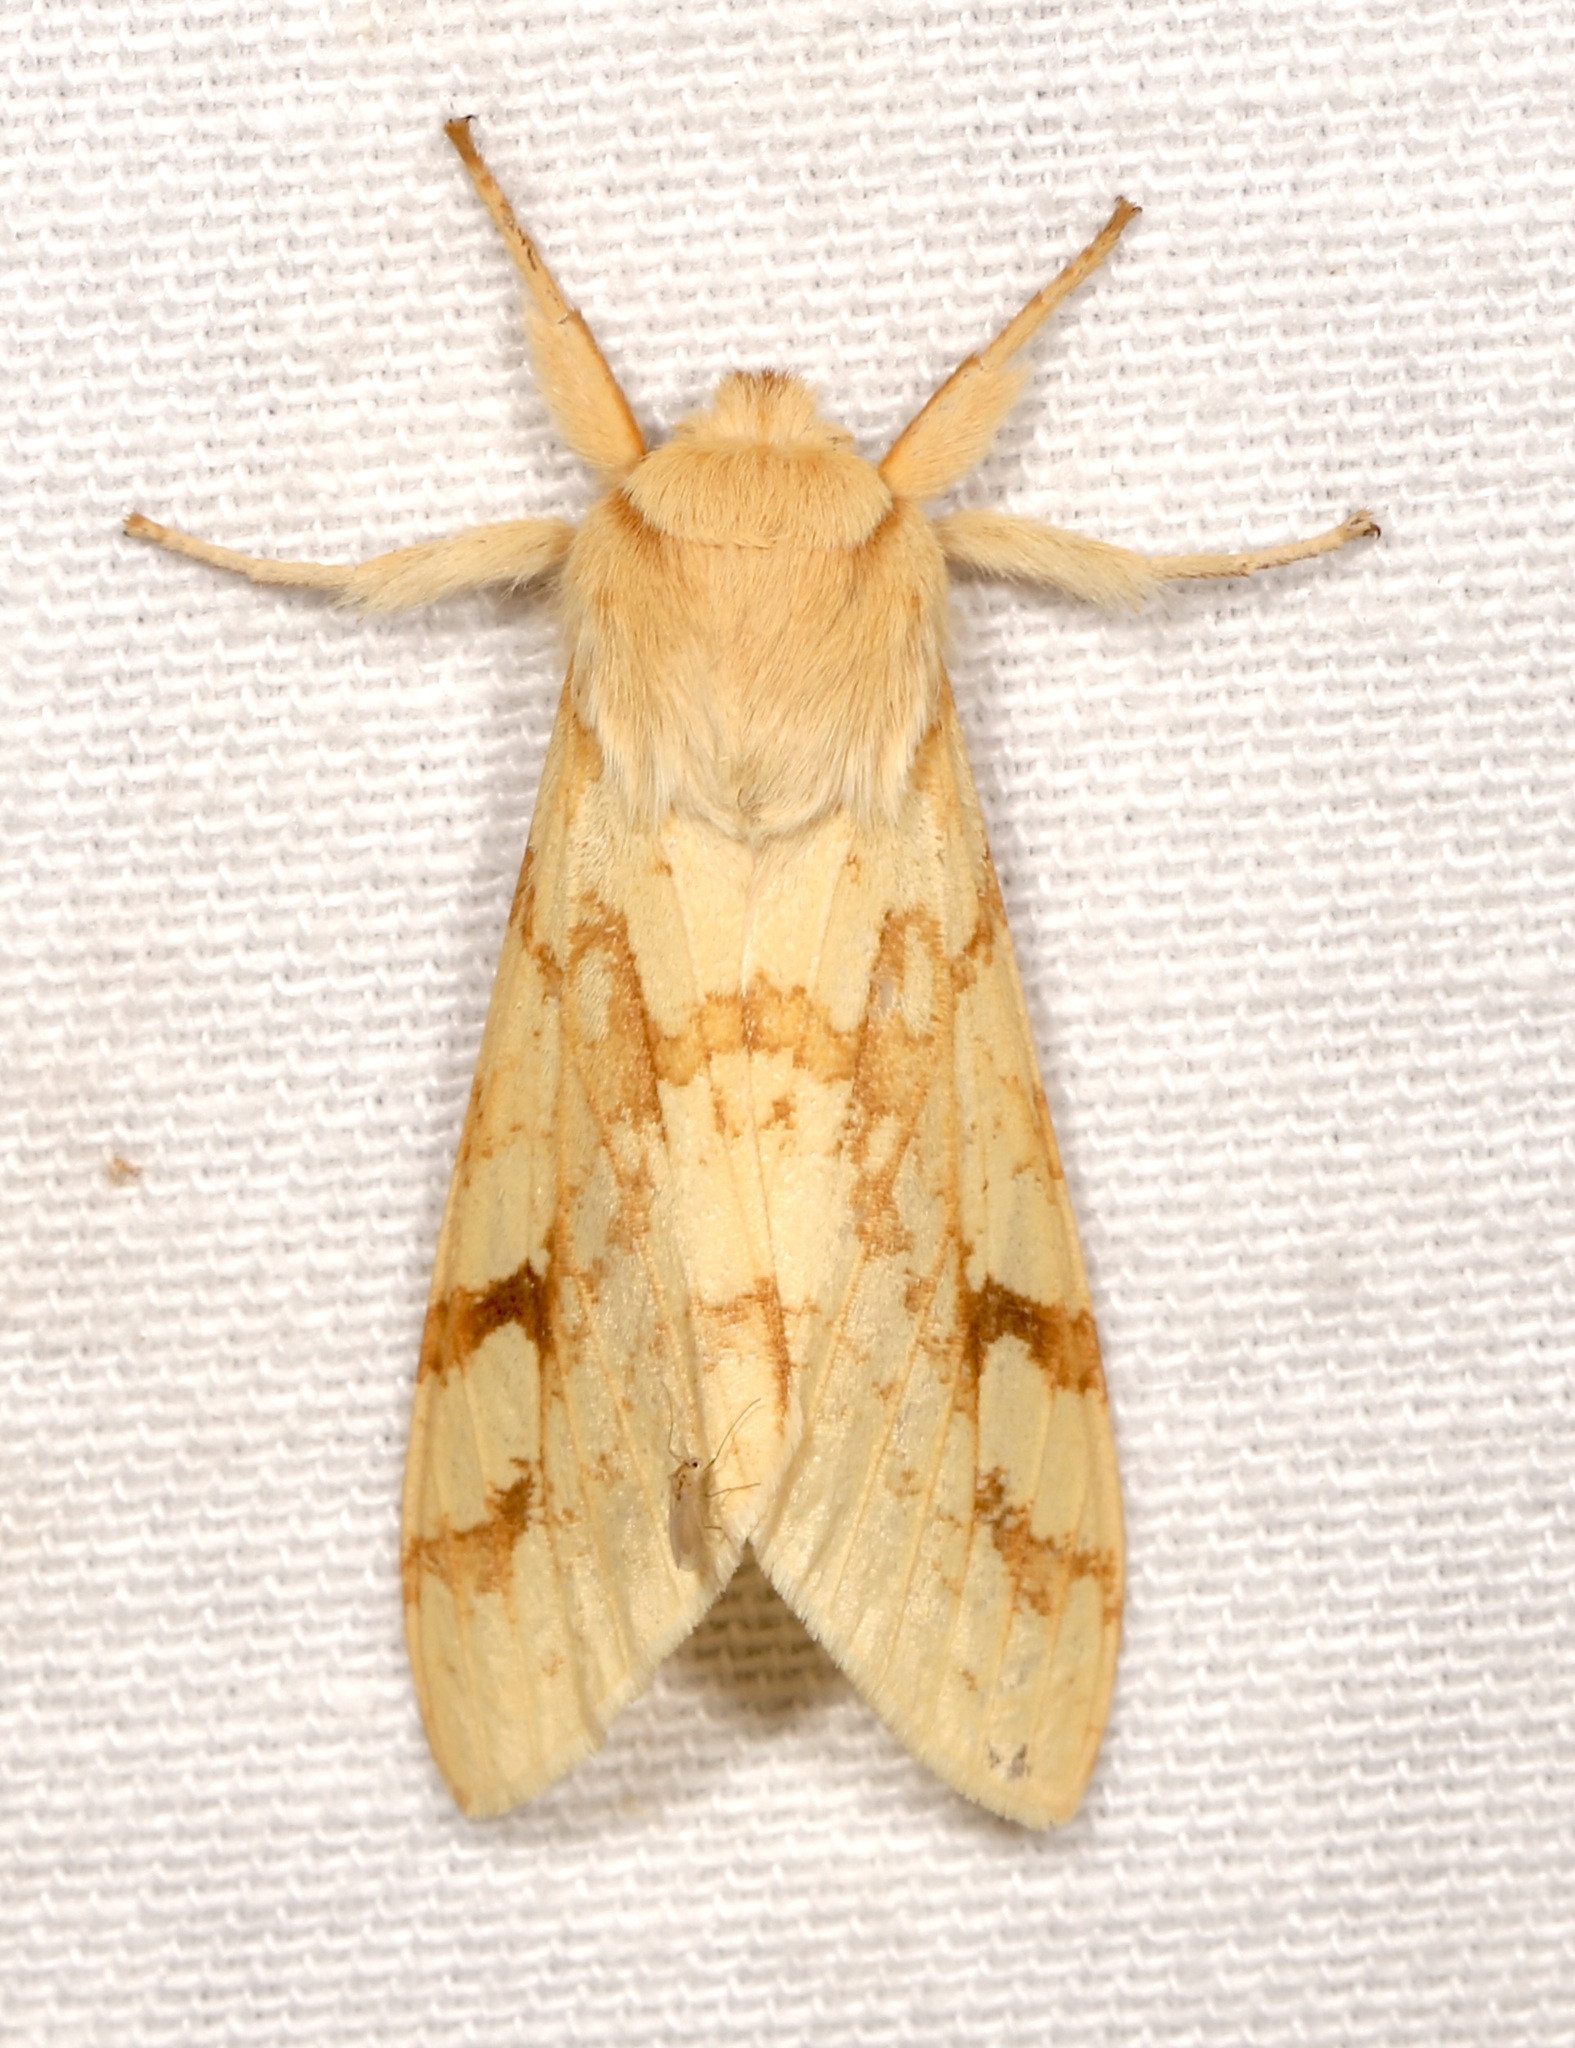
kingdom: Animalia
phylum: Arthropoda
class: Insecta
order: Lepidoptera
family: Erebidae
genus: Lophocampa
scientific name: Lophocampa maculata
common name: Spotted tussock moth
